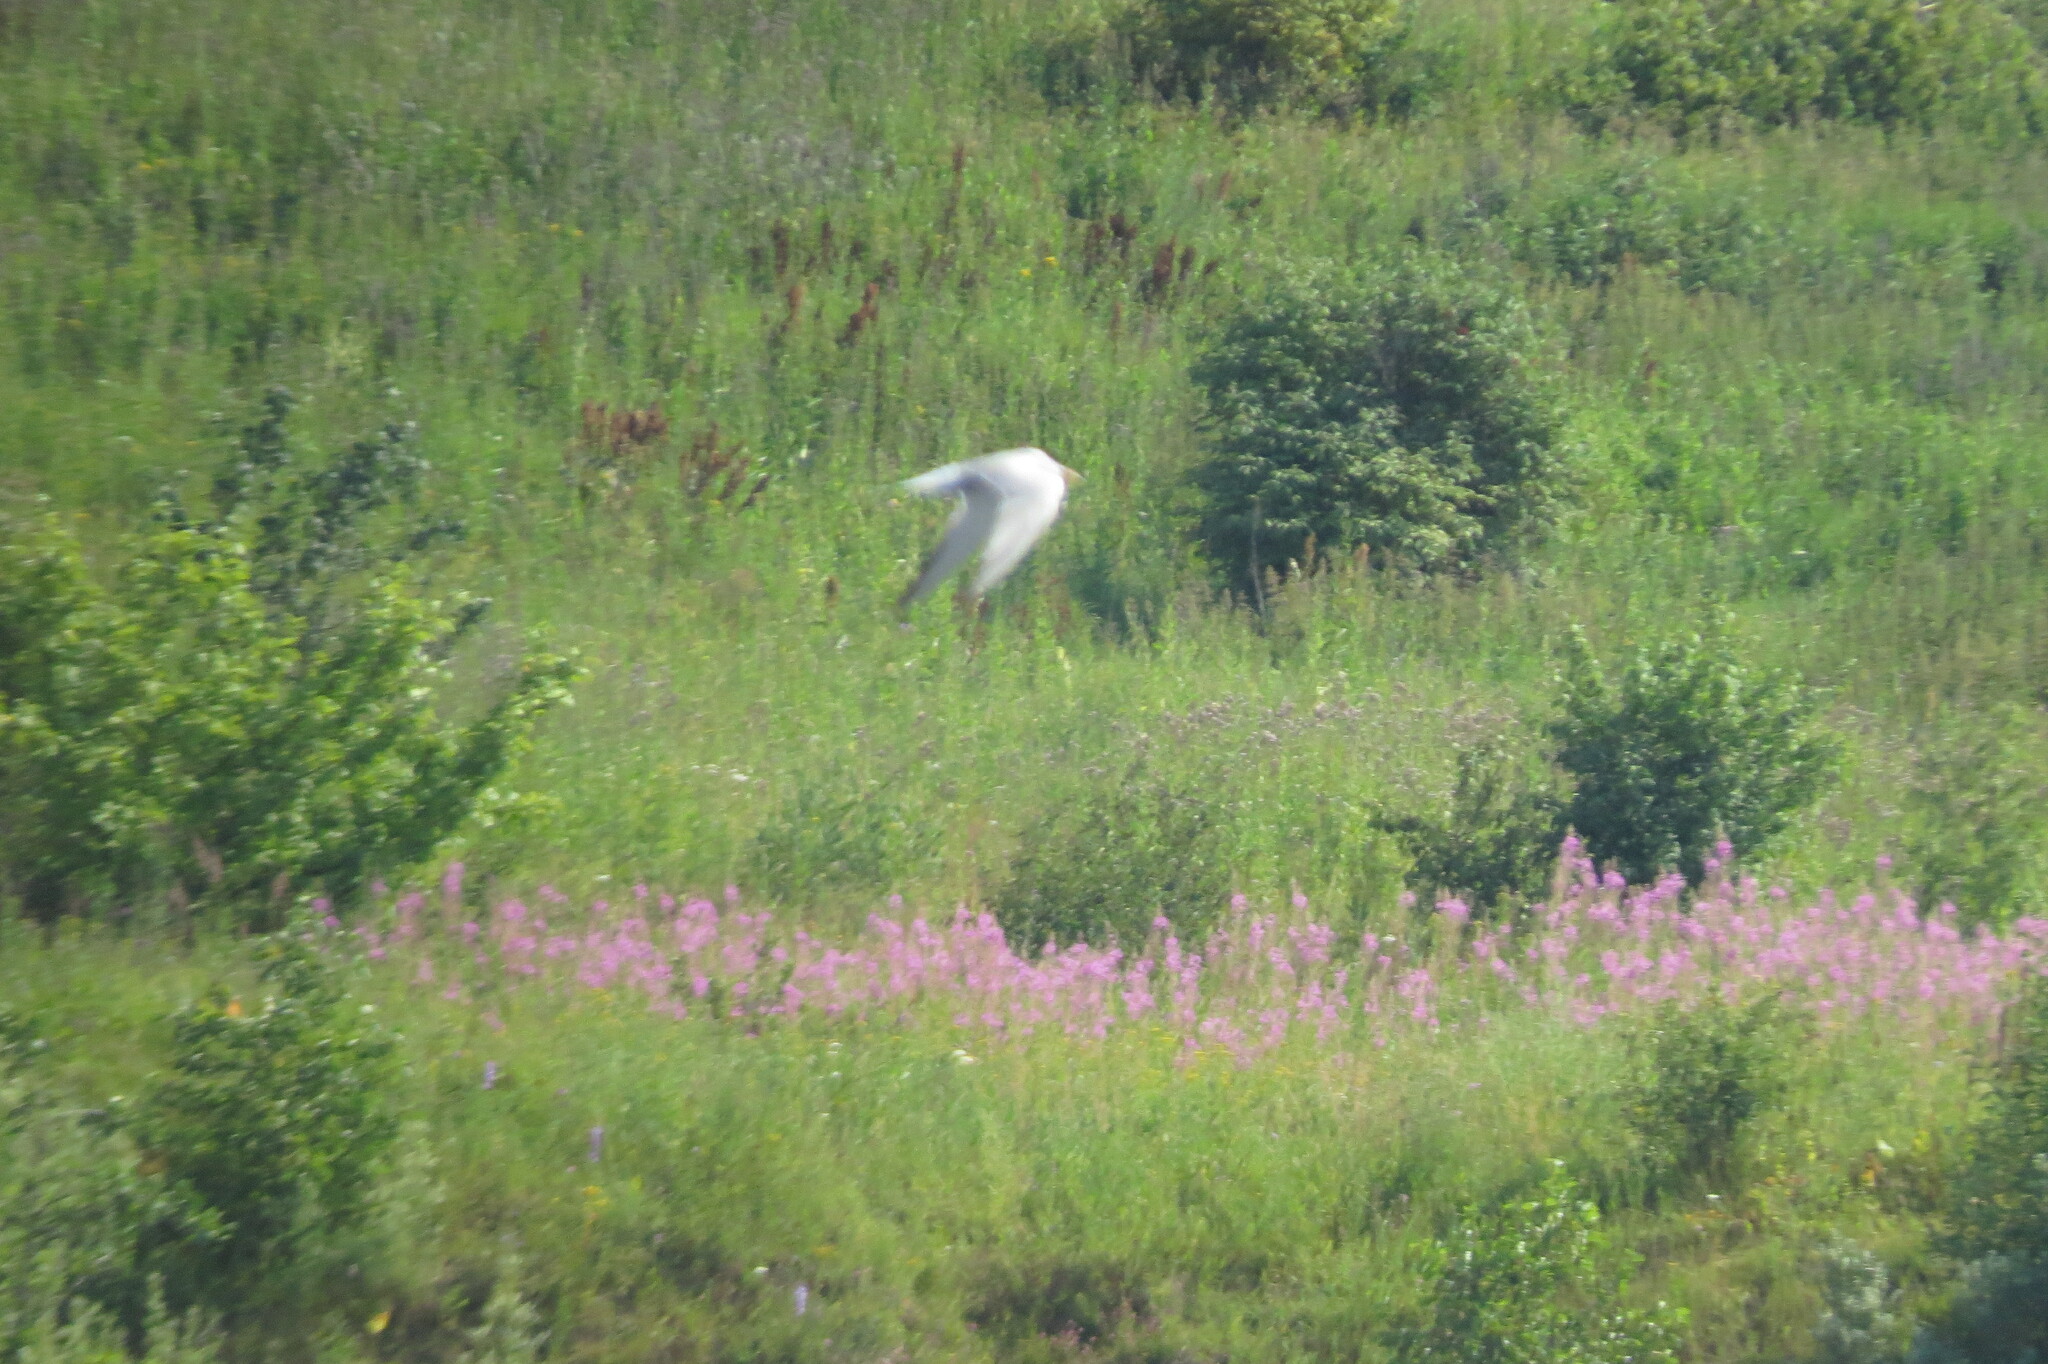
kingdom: Animalia
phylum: Chordata
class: Aves
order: Charadriiformes
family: Laridae
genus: Sterna
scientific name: Sterna hirundo
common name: Common tern
